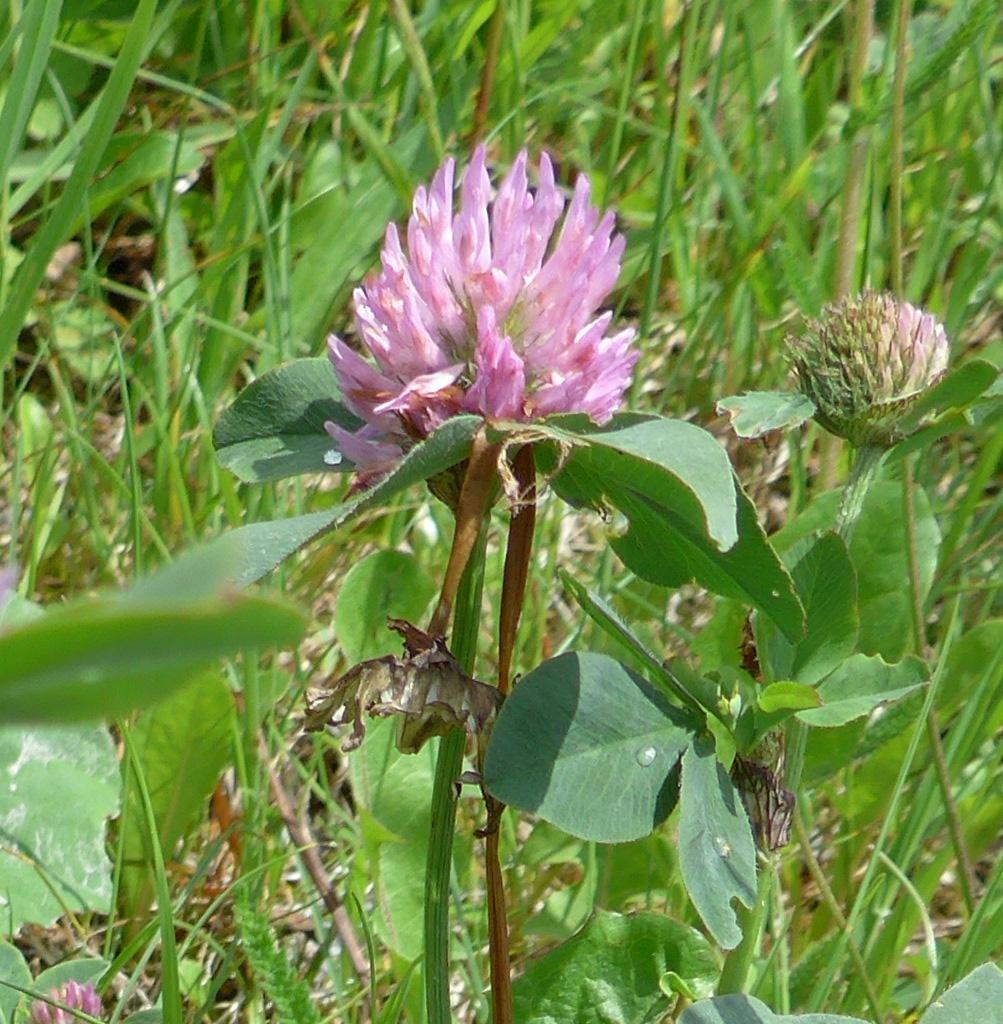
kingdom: Plantae
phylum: Tracheophyta
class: Magnoliopsida
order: Fabales
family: Fabaceae
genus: Trifolium
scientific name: Trifolium pratense
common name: Red clover
